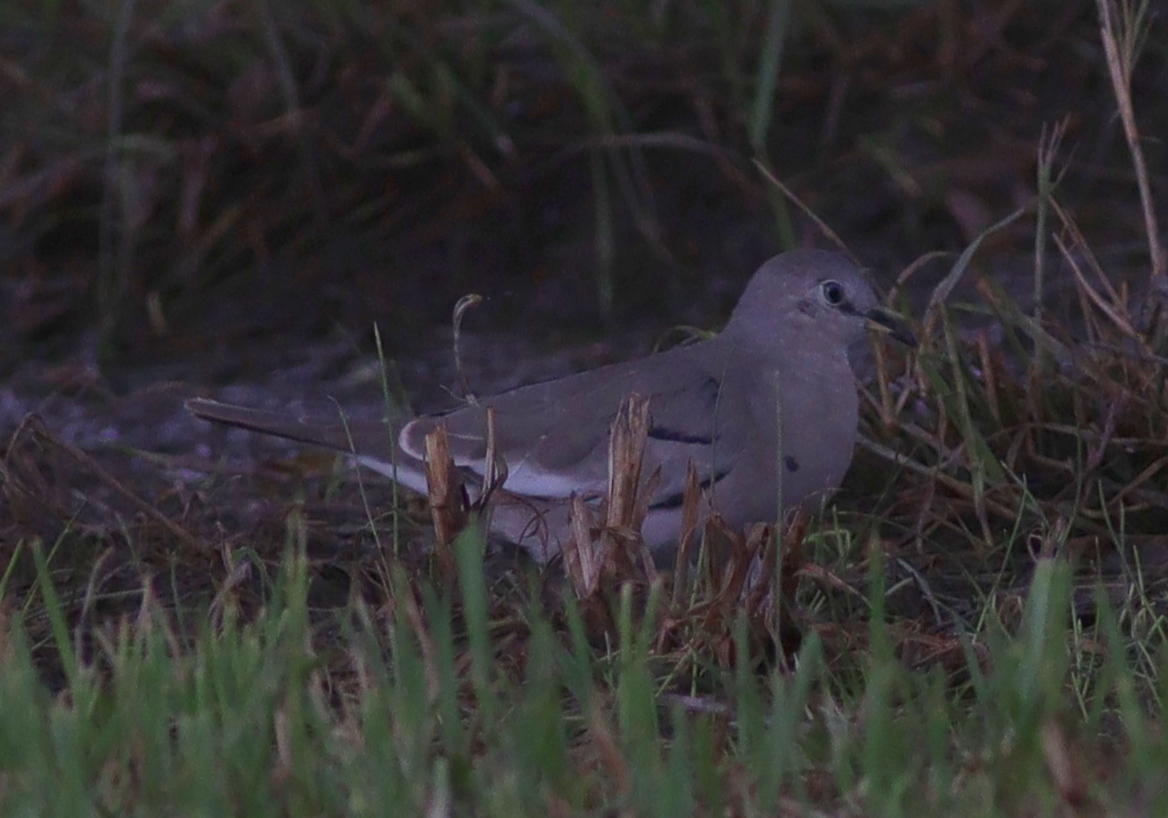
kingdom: Animalia
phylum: Chordata
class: Aves
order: Columbiformes
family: Columbidae
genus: Columbina
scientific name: Columbina picui
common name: Picui ground dove
